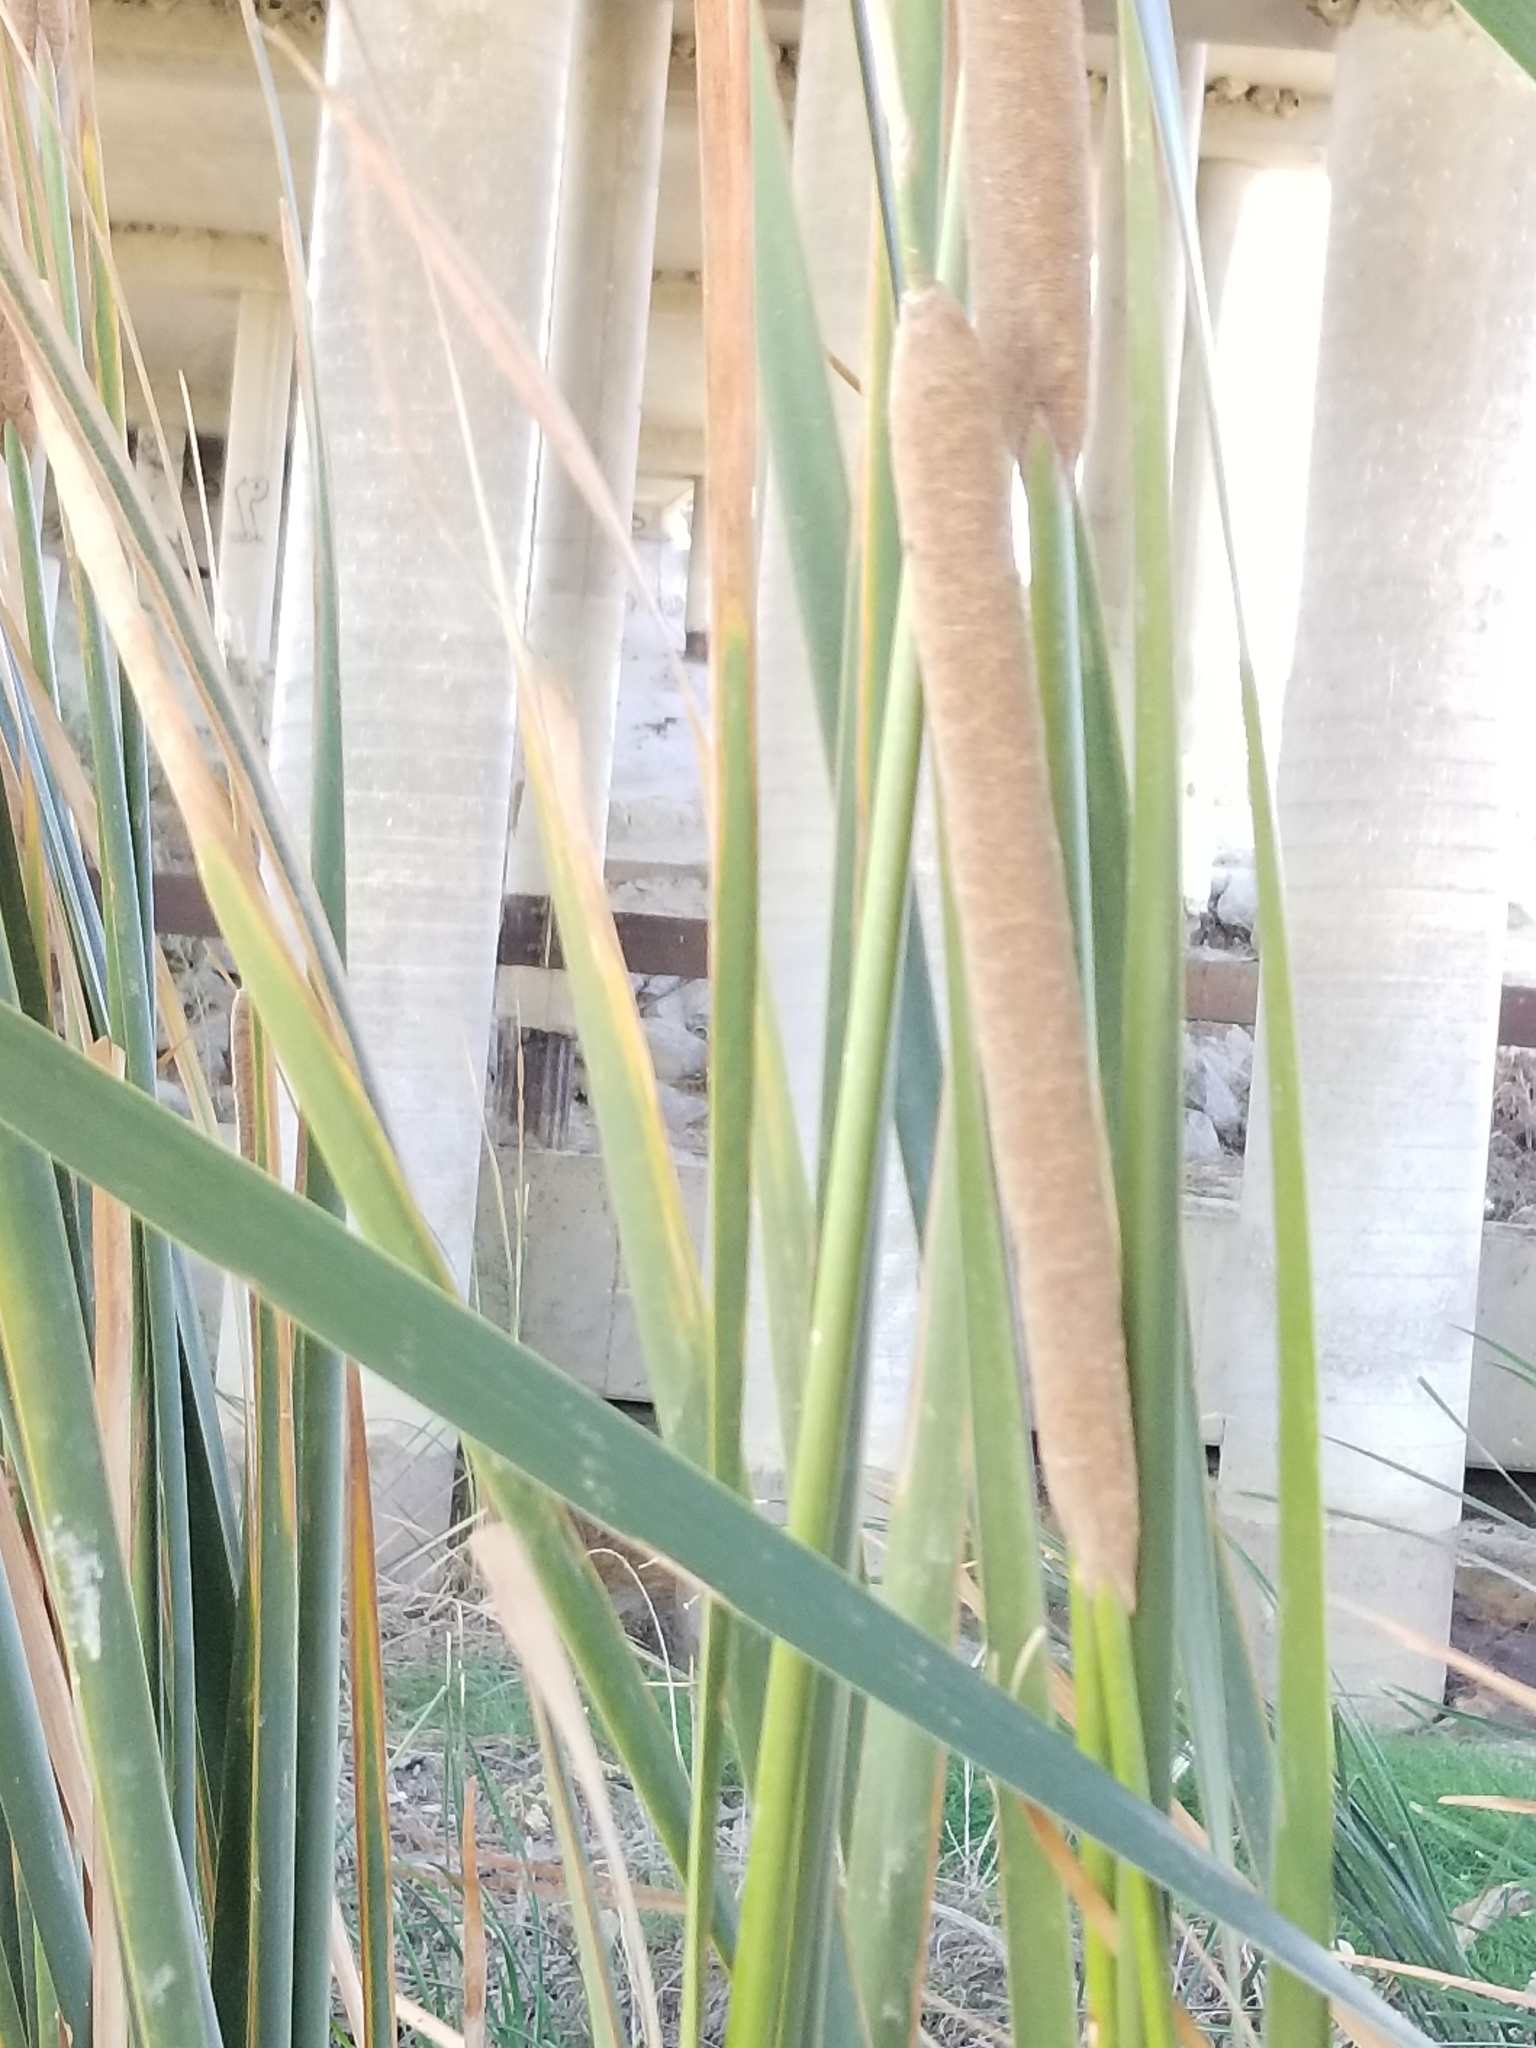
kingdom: Plantae
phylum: Tracheophyta
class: Liliopsida
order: Poales
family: Typhaceae
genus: Typha
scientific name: Typha domingensis
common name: Southern cattail
